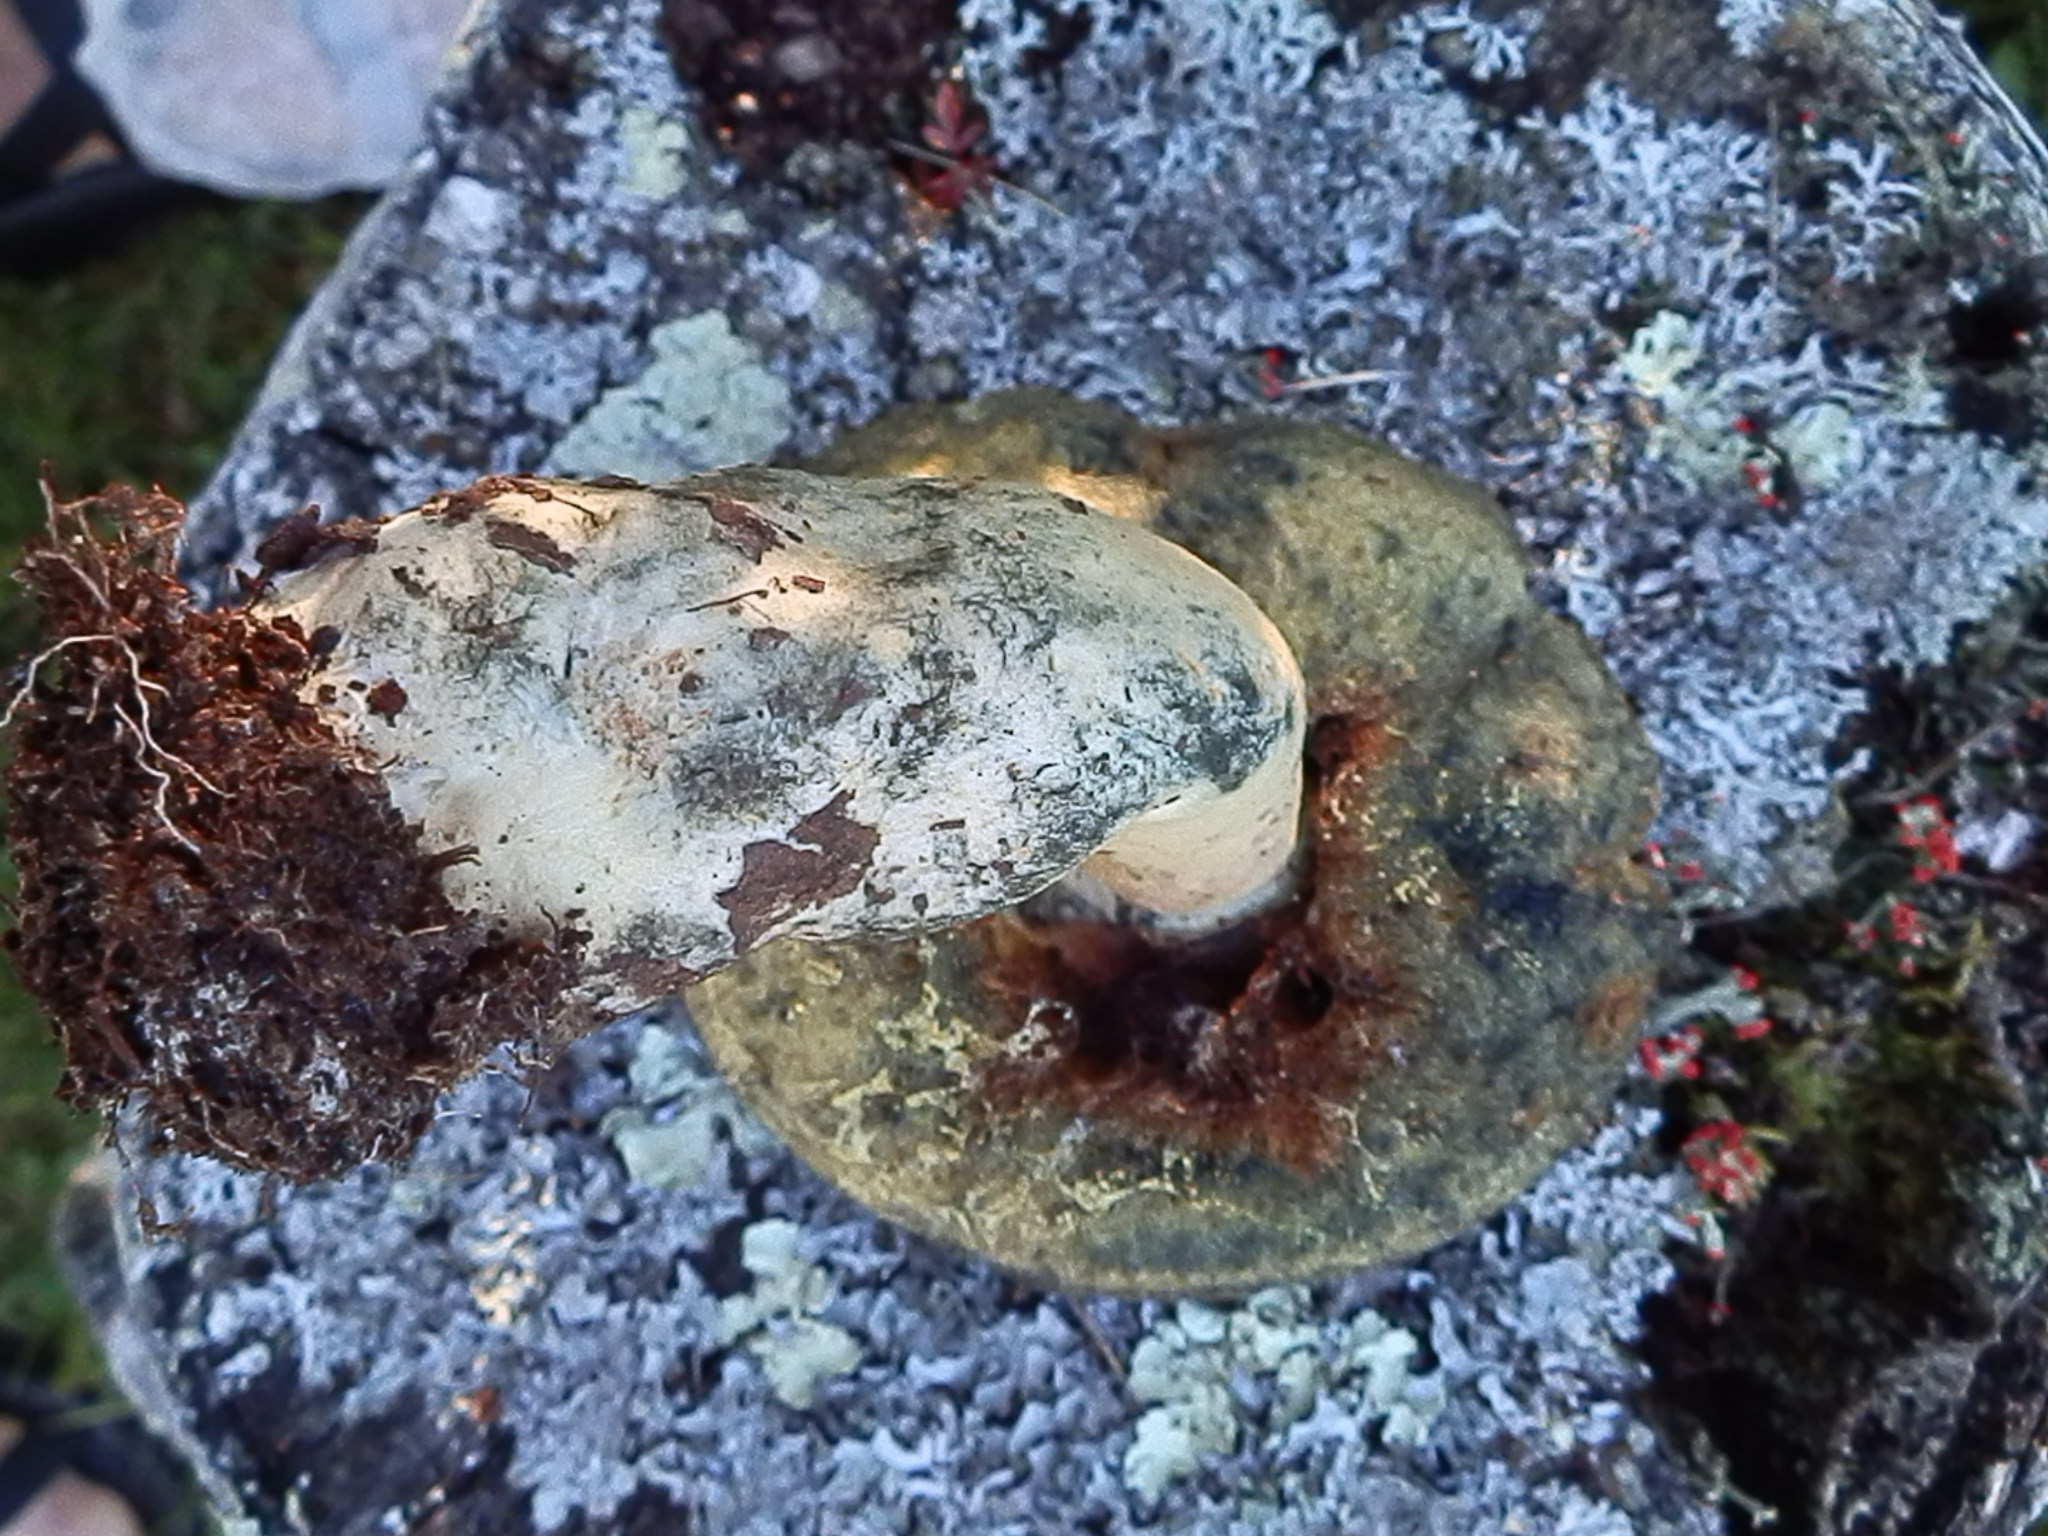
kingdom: Fungi
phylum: Basidiomycota
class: Agaricomycetes
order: Boletales
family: Gyroporaceae
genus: Gyroporus
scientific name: Gyroporus cyanescens
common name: Cornflower bolete
